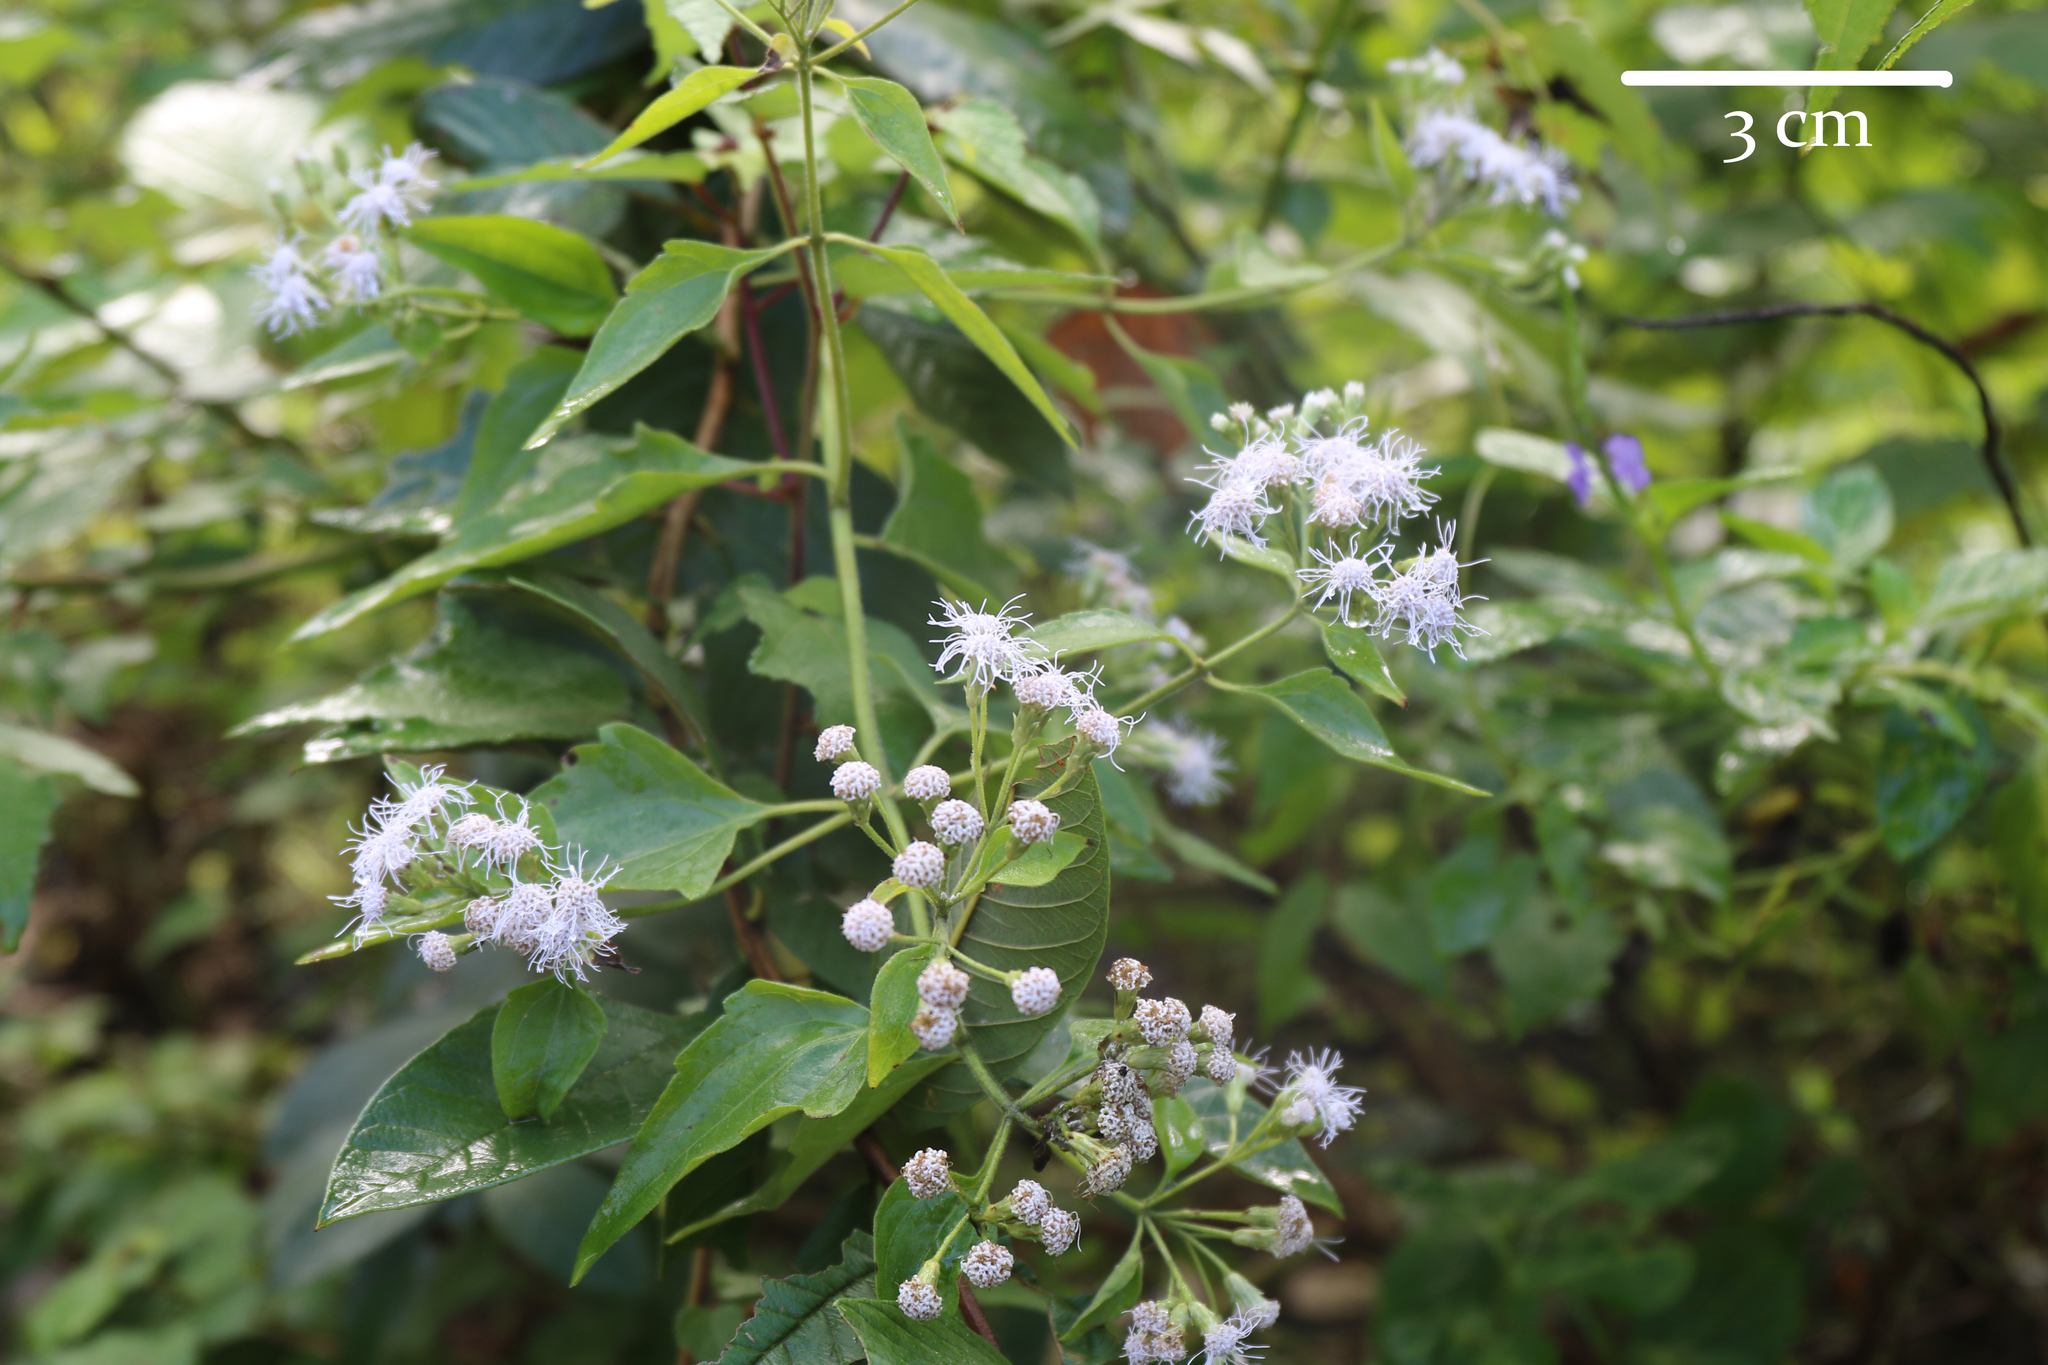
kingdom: Plantae
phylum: Tracheophyta
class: Magnoliopsida
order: Asterales
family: Asteraceae
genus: Chromolaena
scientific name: Chromolaena odorata
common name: Siamweed
